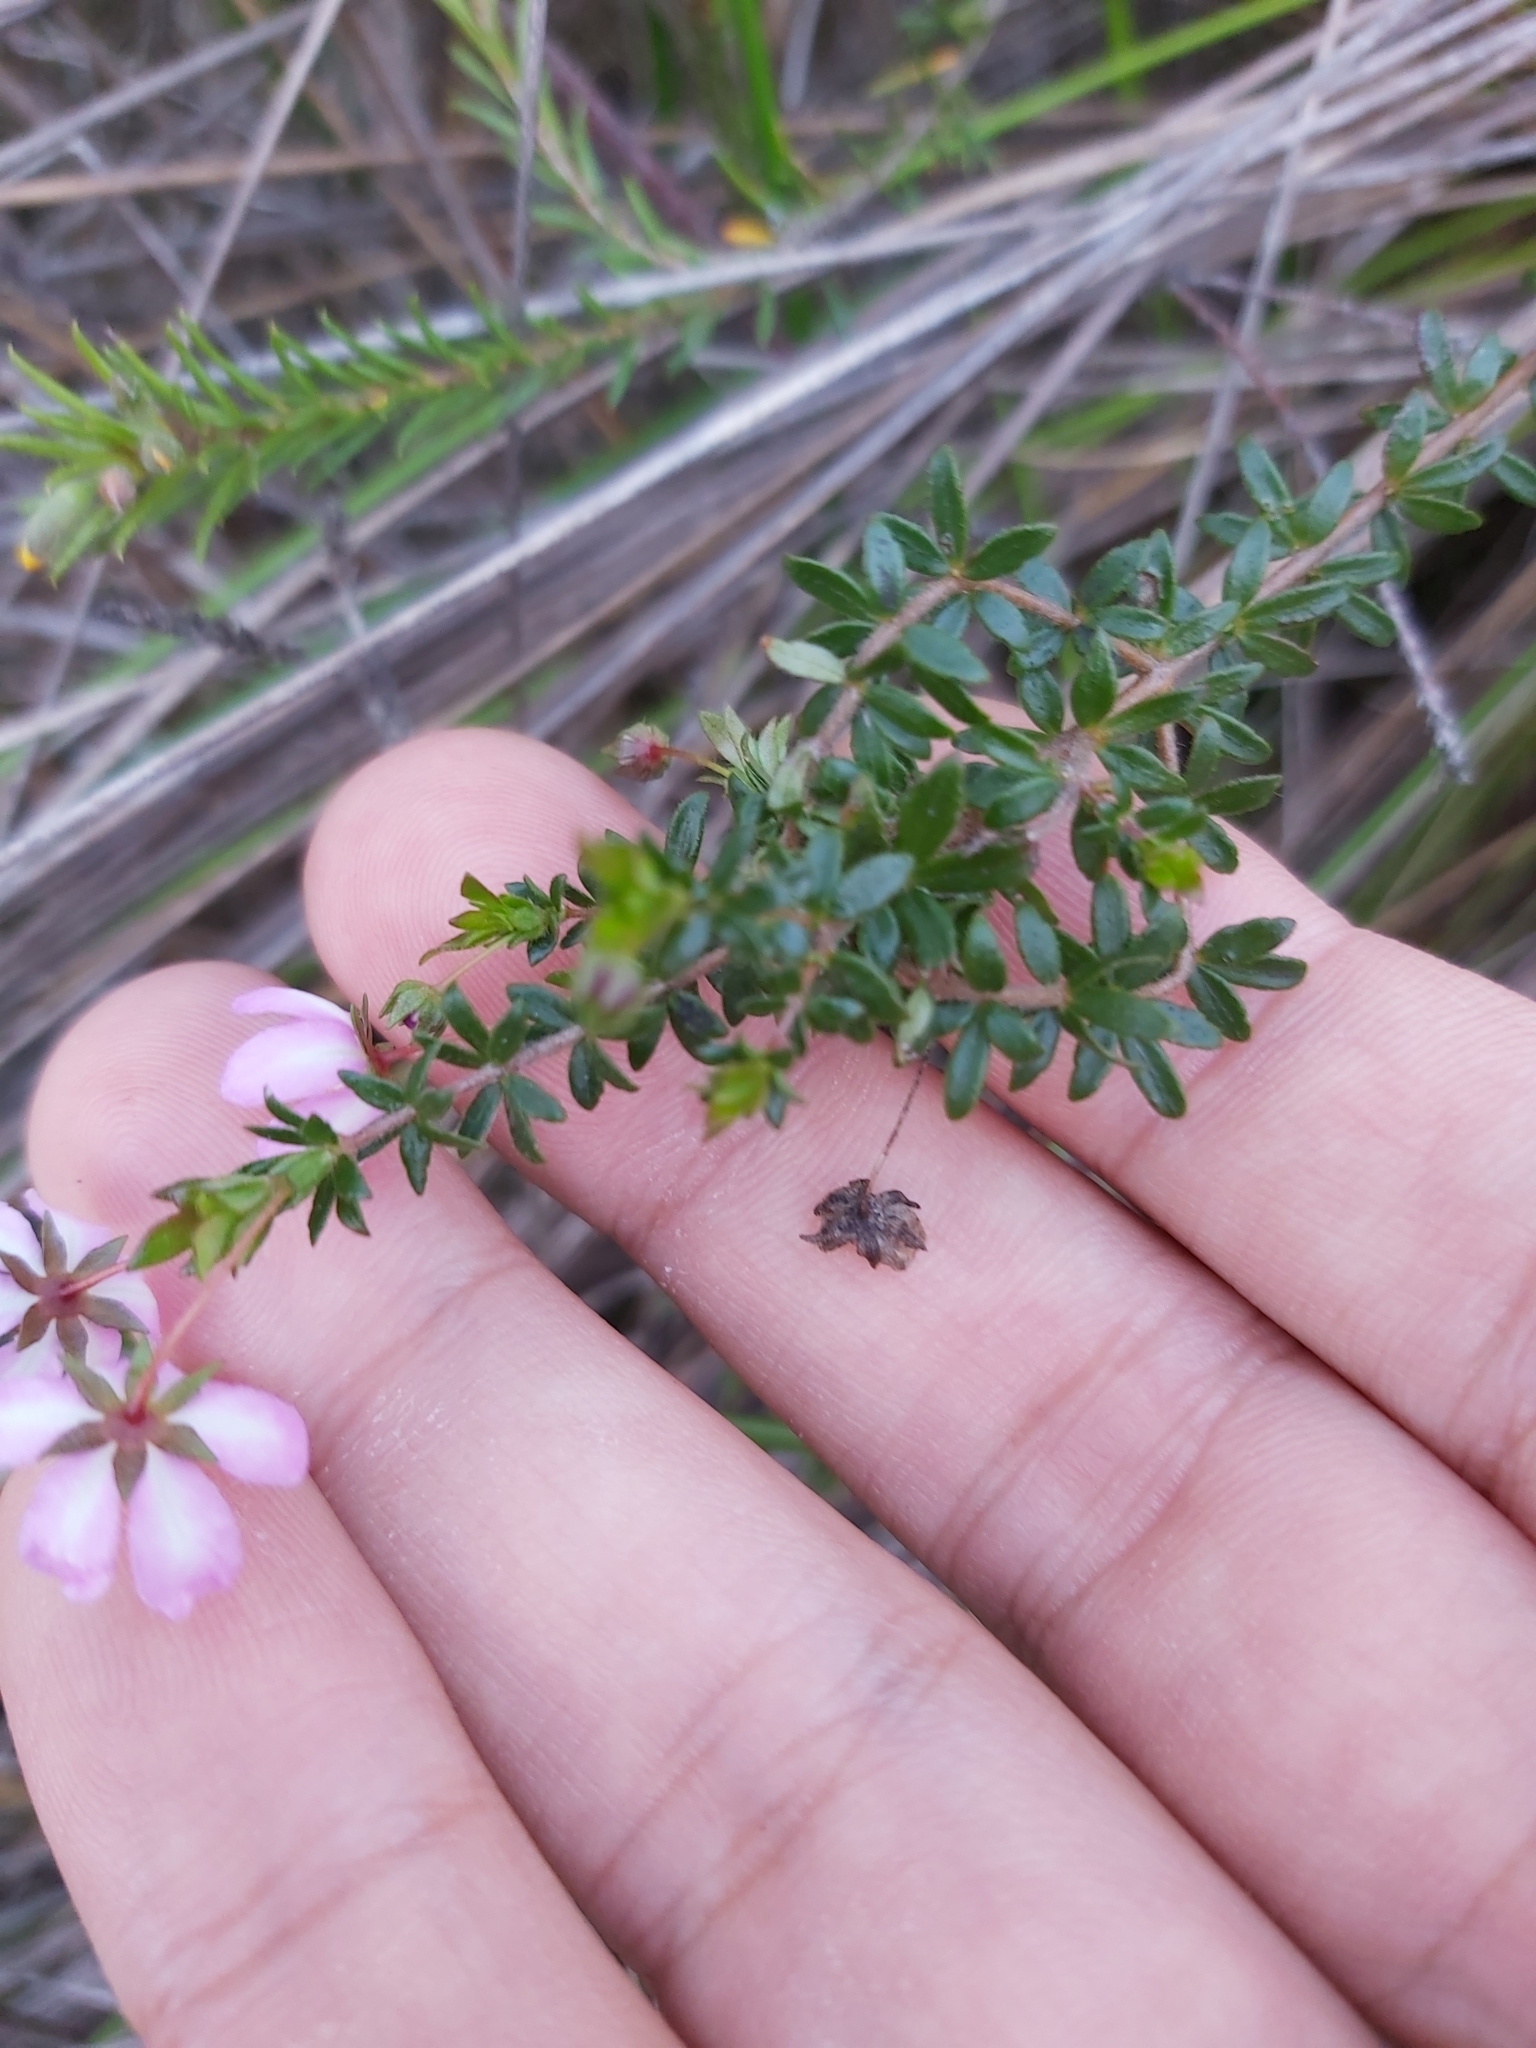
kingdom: Plantae
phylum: Tracheophyta
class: Magnoliopsida
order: Oxalidales
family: Cunoniaceae
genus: Bauera
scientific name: Bauera rubioides
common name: River-rose
